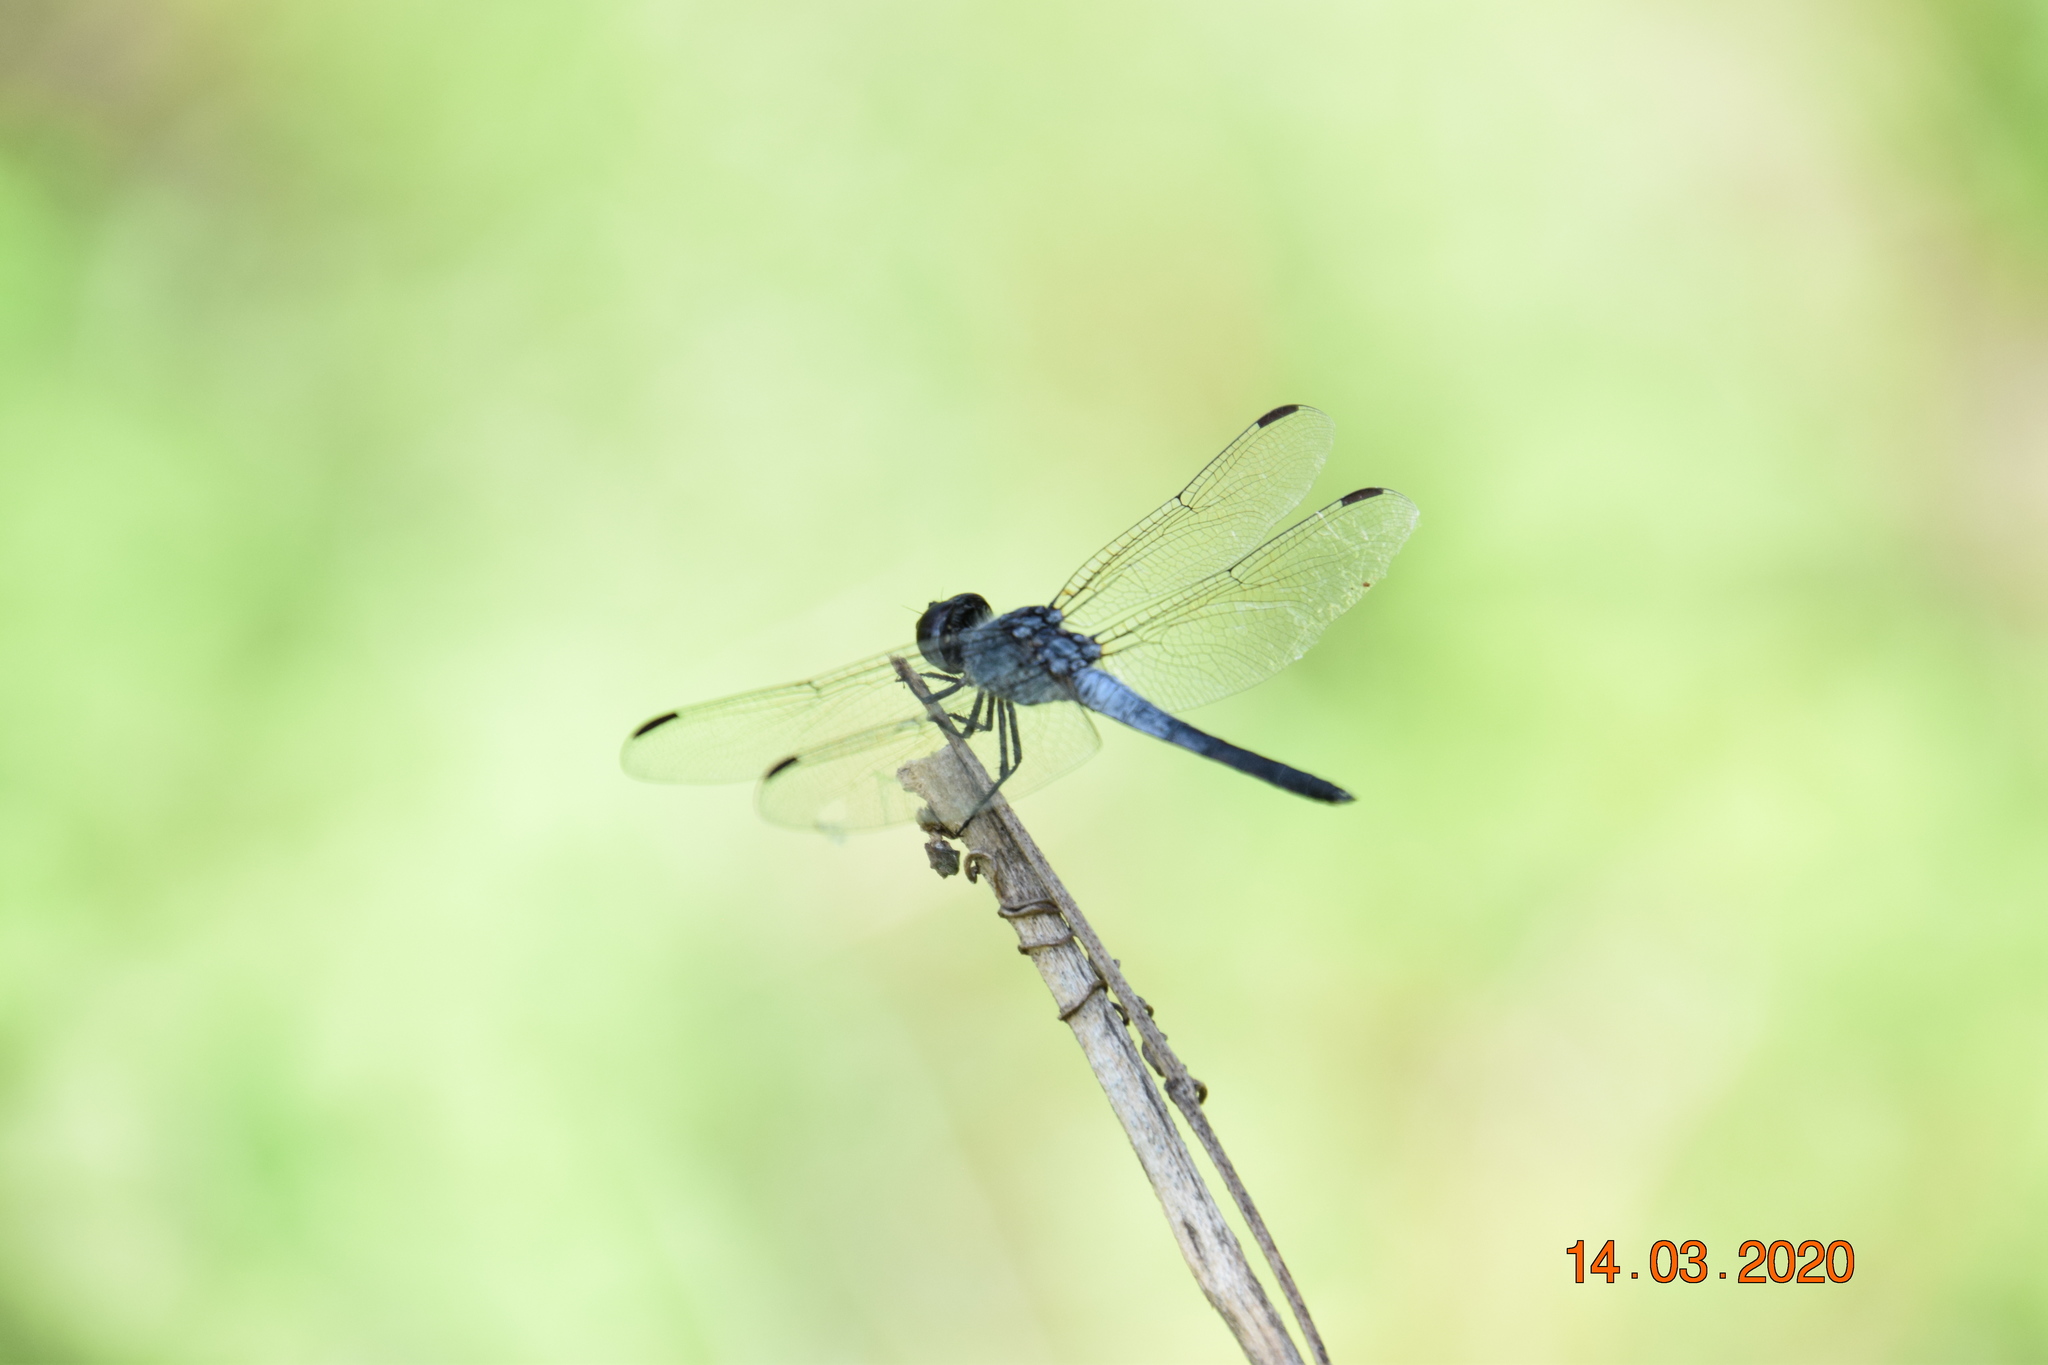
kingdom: Animalia
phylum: Arthropoda
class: Insecta
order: Odonata
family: Libellulidae
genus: Diplacodes
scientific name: Diplacodes trivialis
